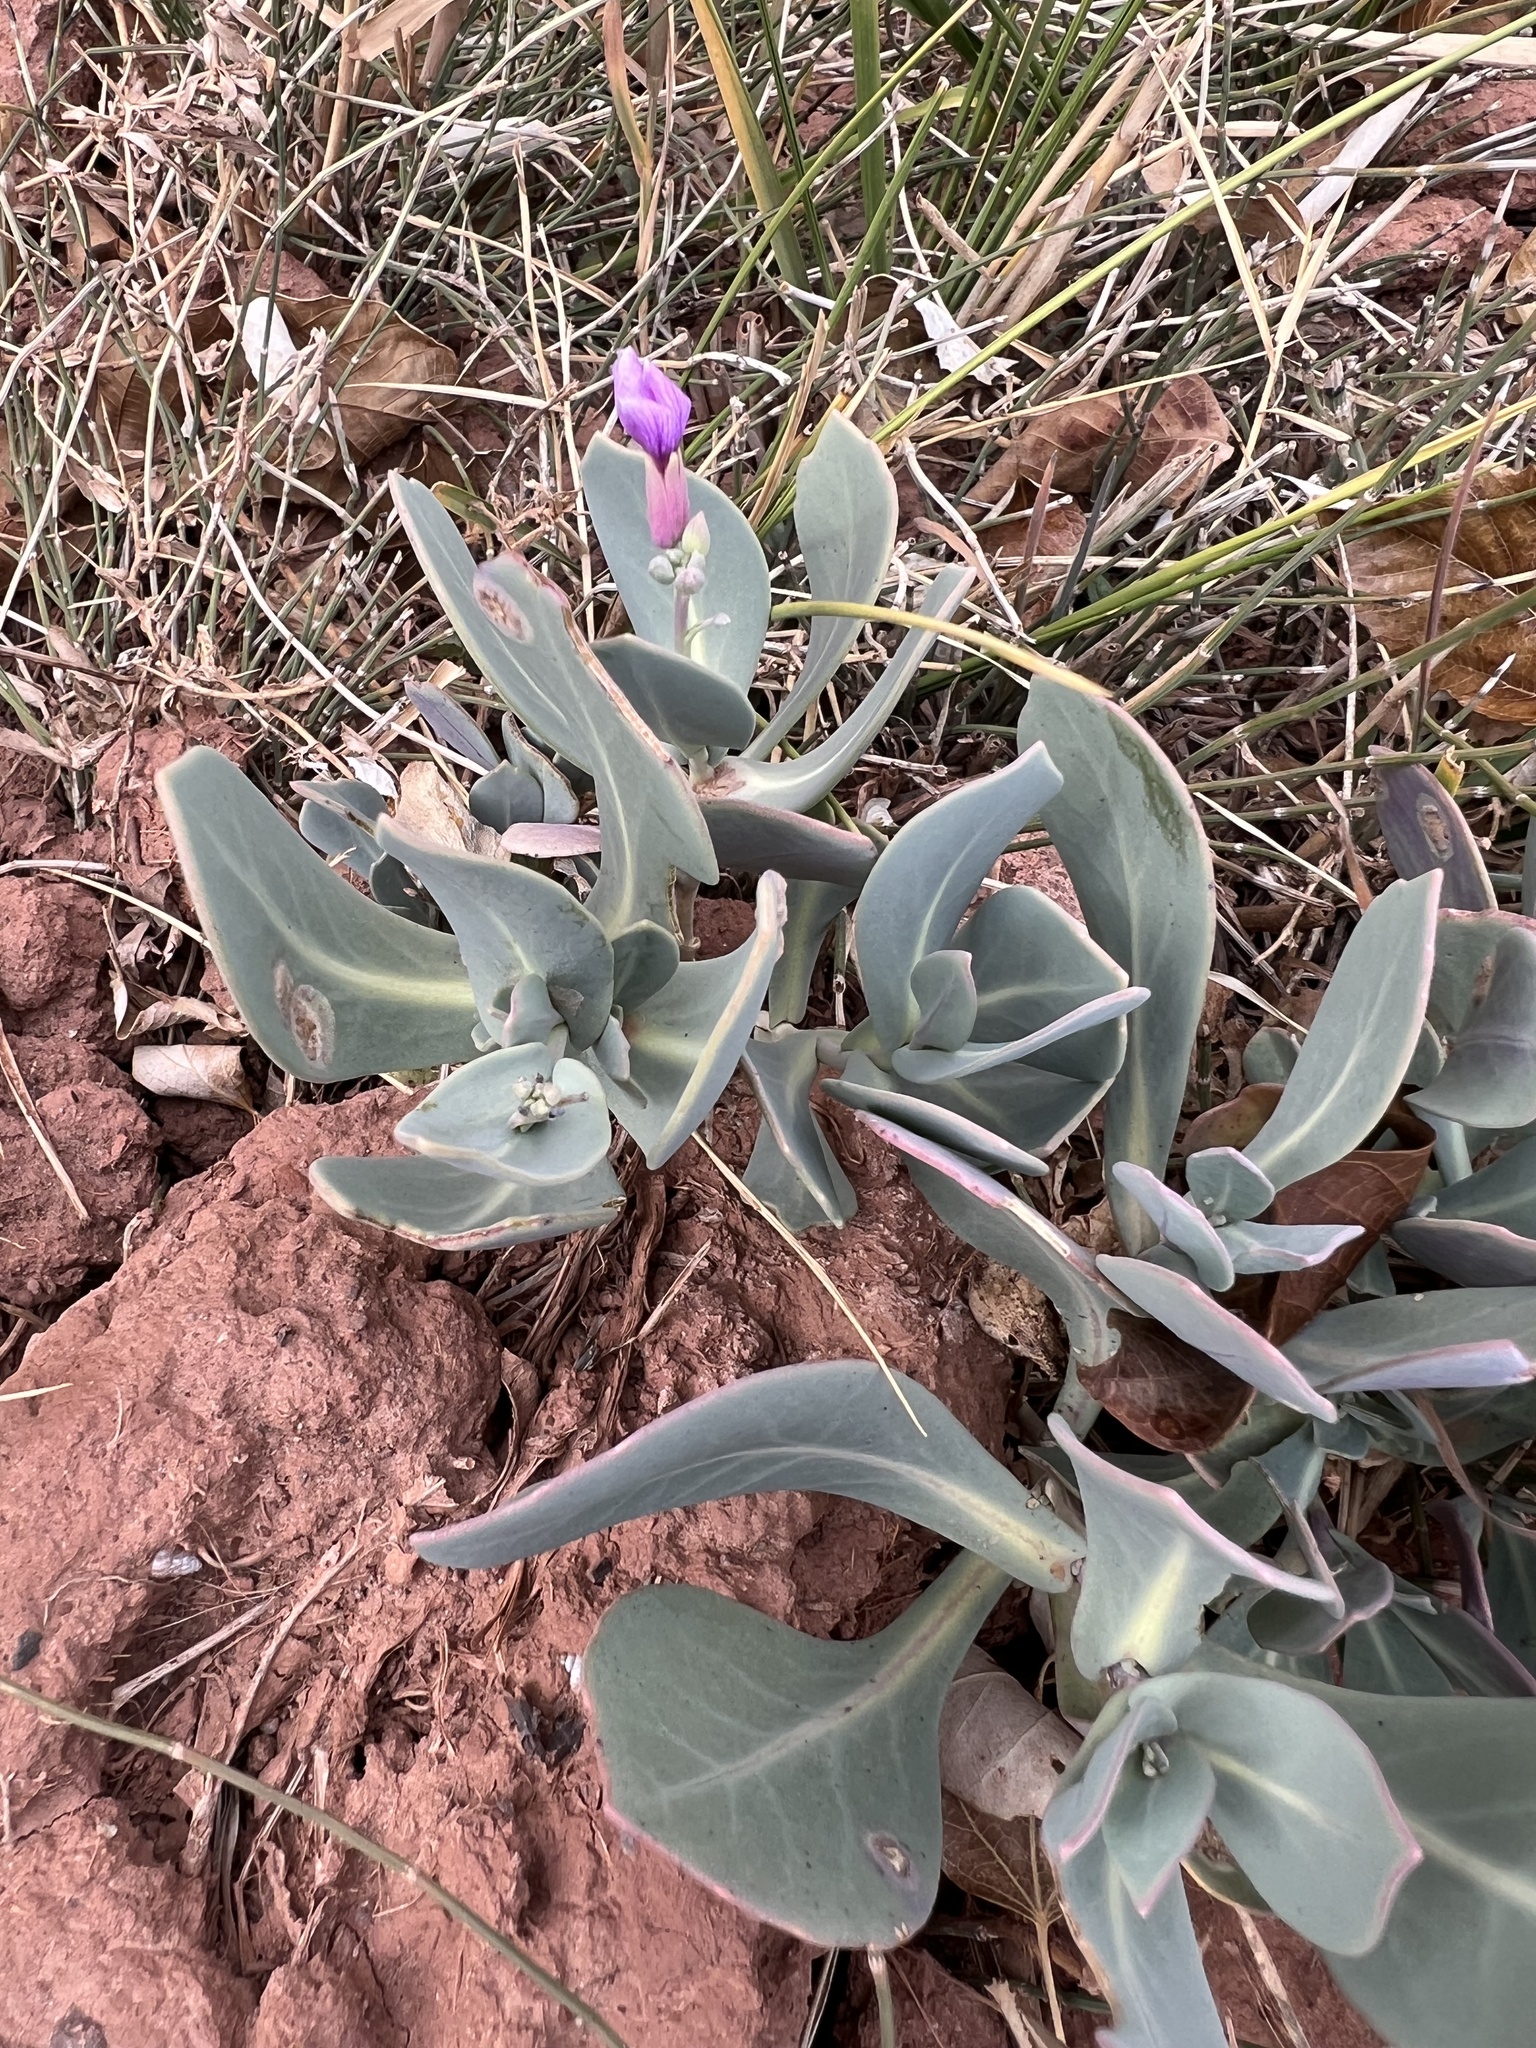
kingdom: Plantae
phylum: Tracheophyta
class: Magnoliopsida
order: Brassicales
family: Brassicaceae
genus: Moricandia
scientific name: Moricandia arvensis
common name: Purple mistress
